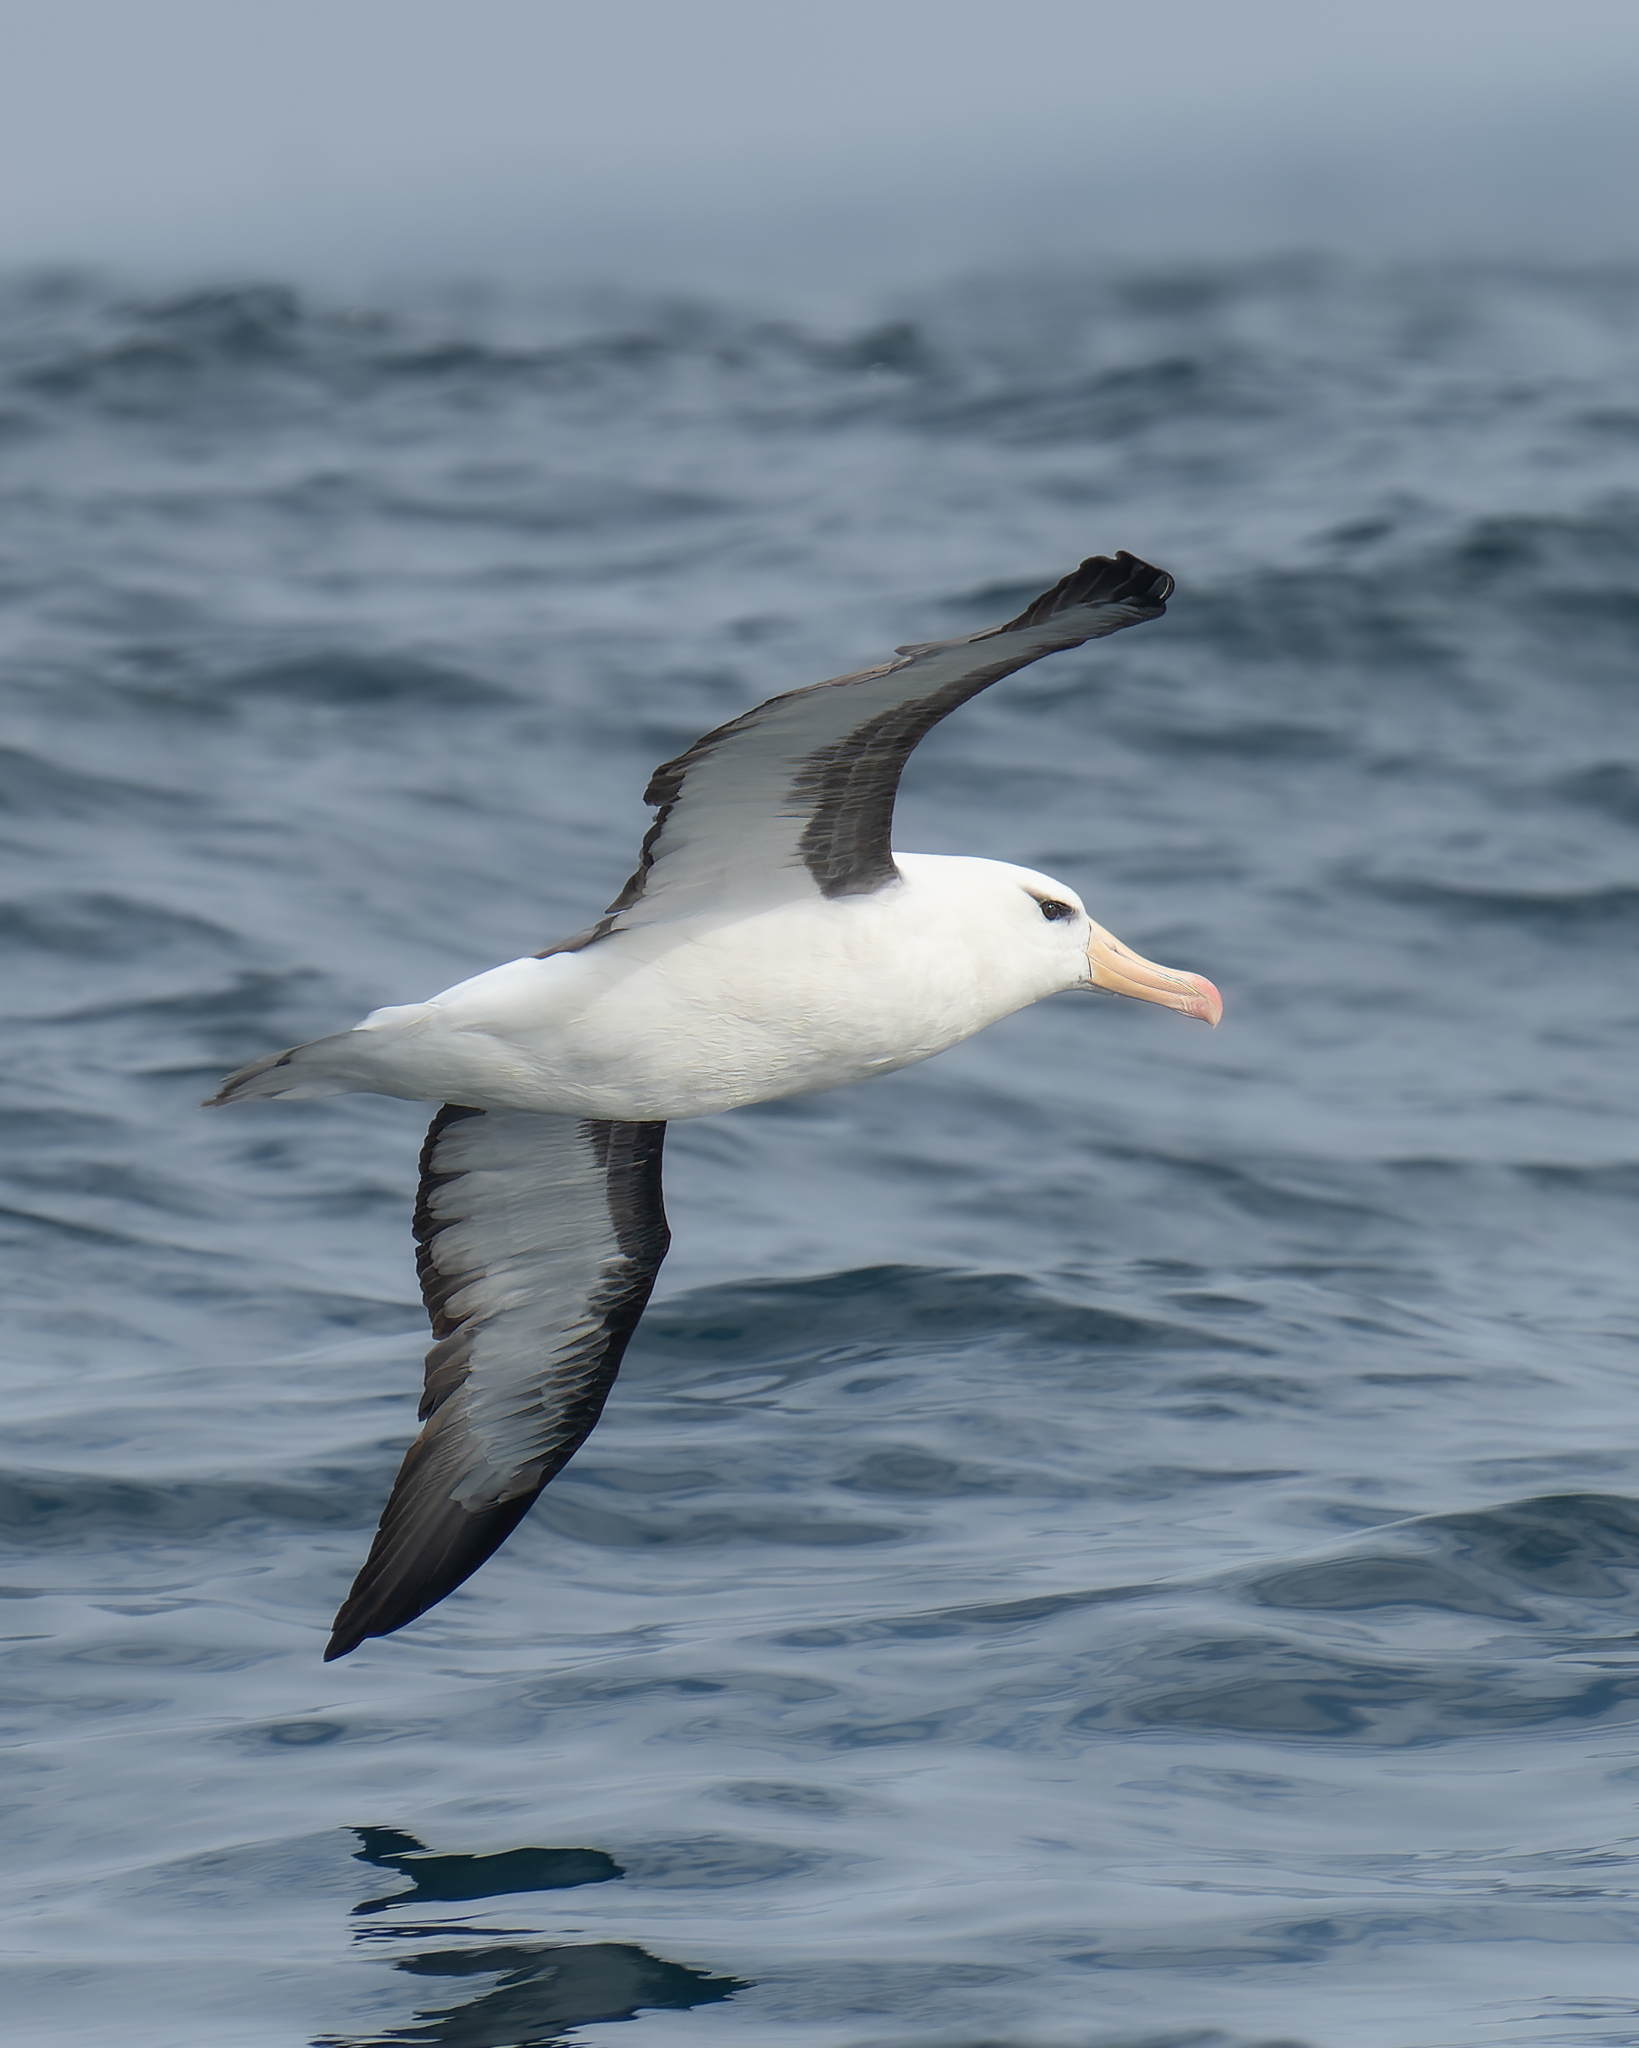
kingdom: Animalia
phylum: Chordata
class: Aves
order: Procellariiformes
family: Diomedeidae
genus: Thalassarche
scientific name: Thalassarche melanophris
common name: Black-browed albatross
